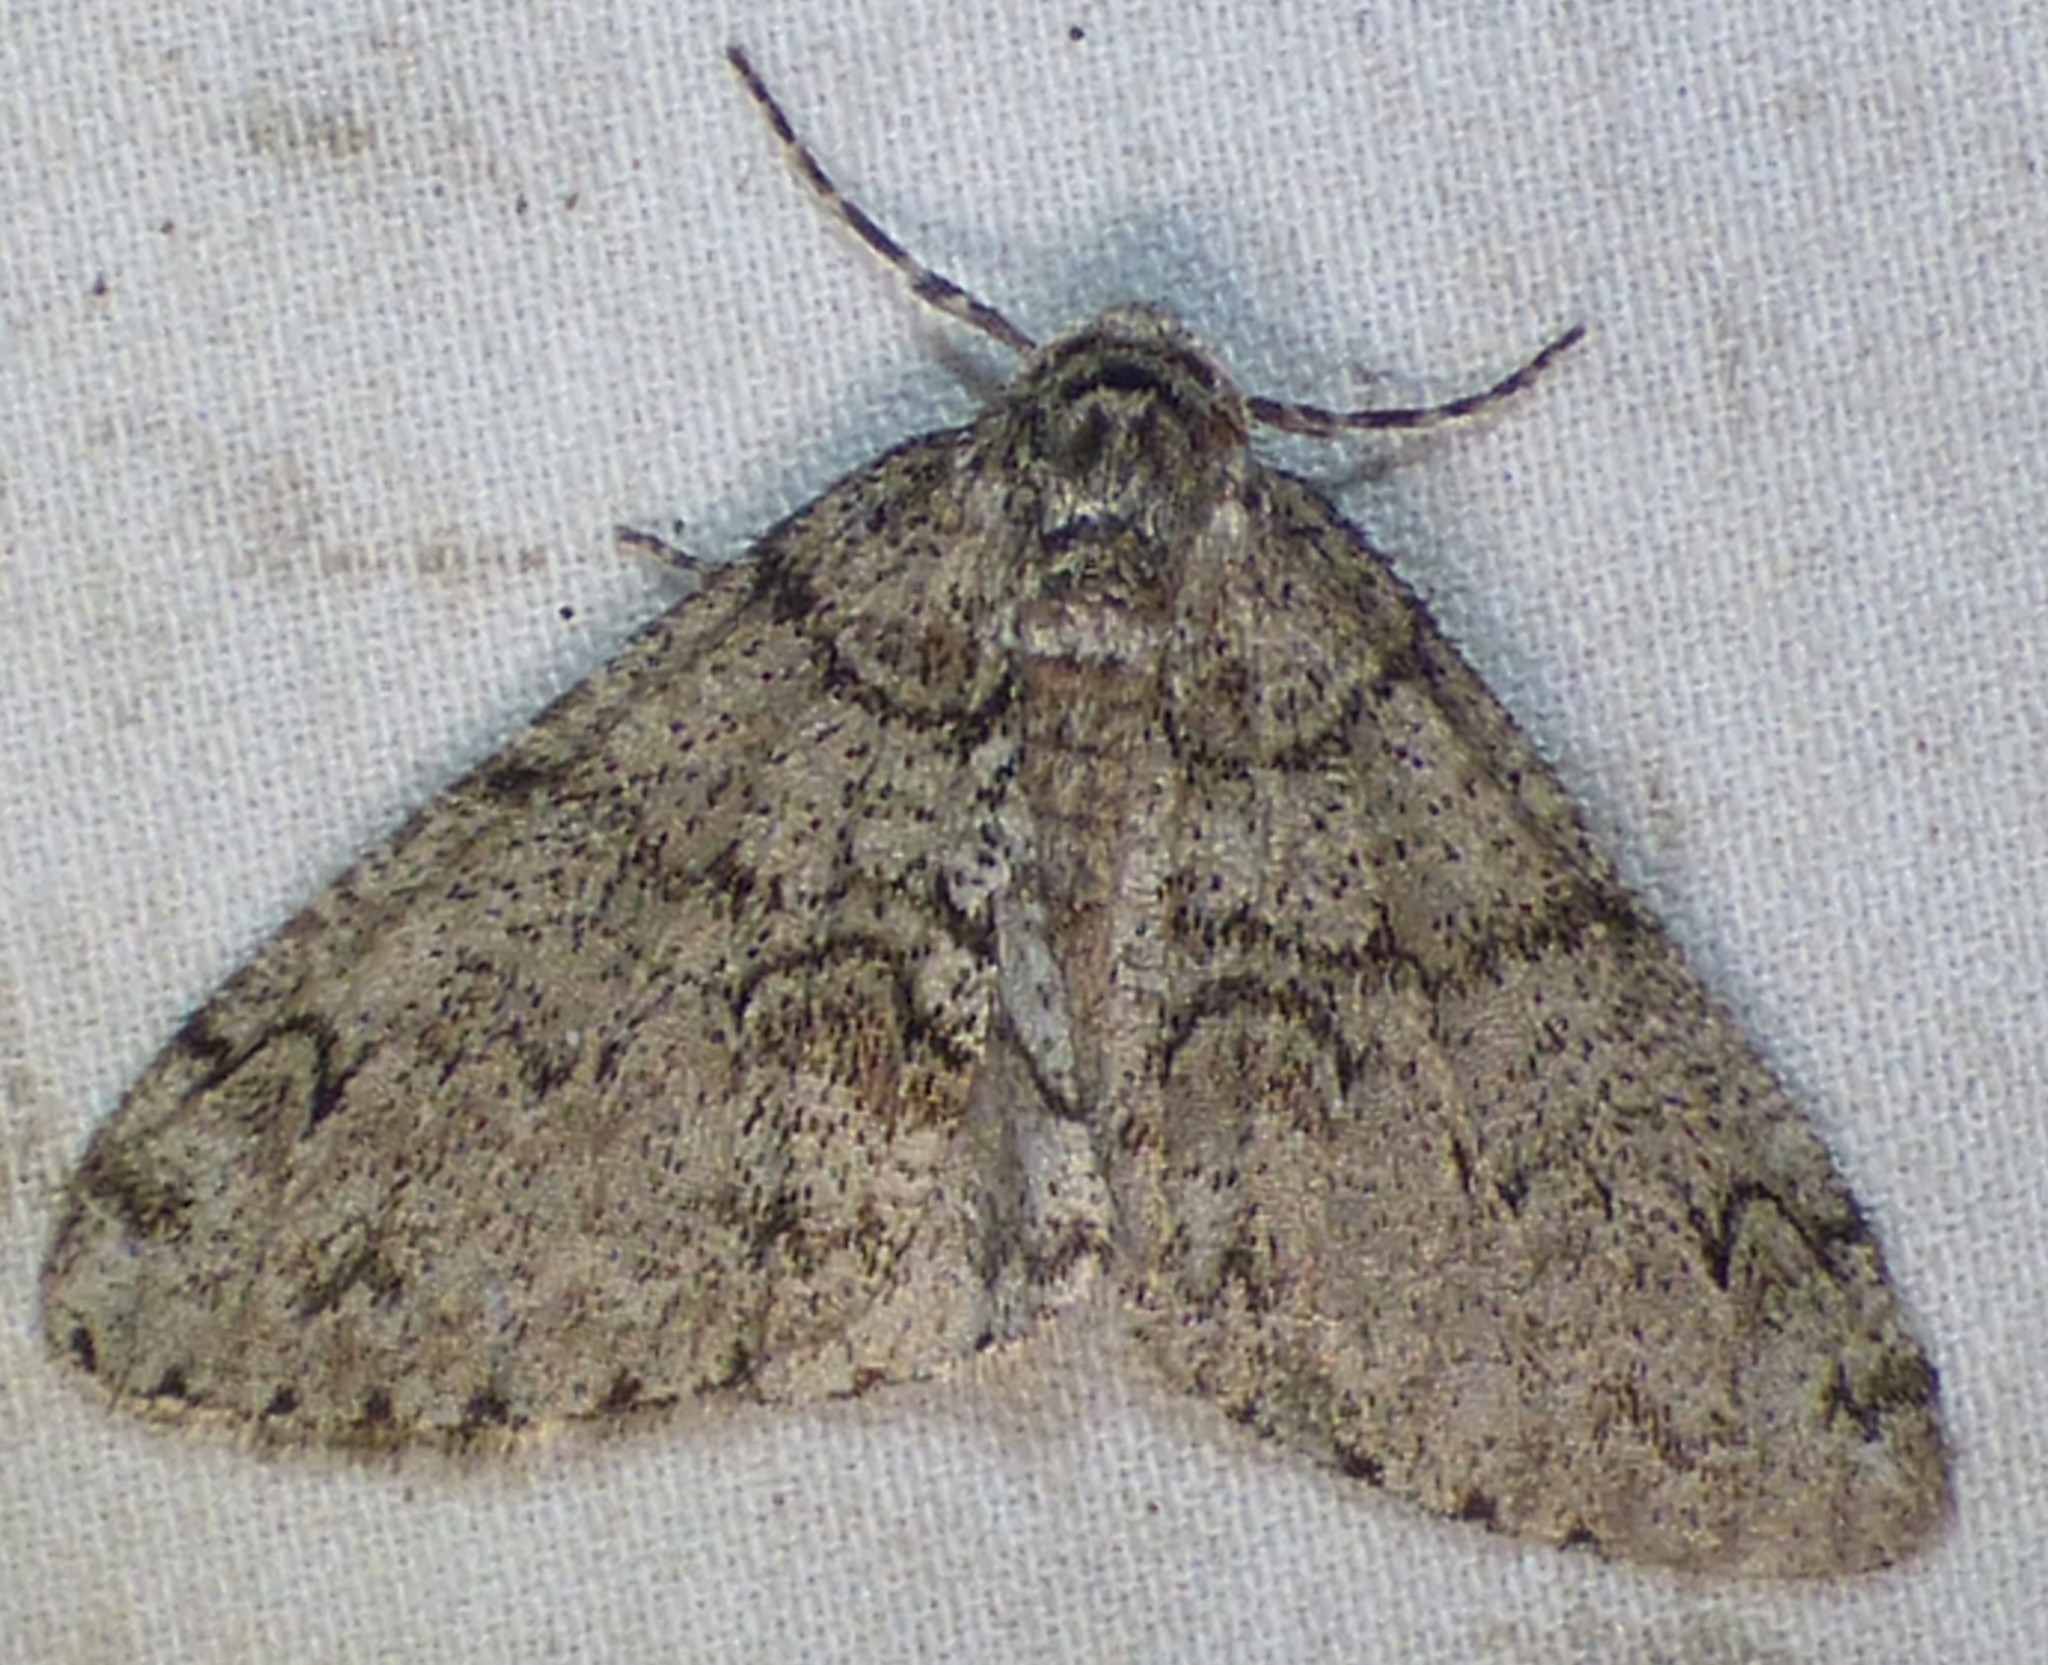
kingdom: Animalia
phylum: Arthropoda
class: Insecta
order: Lepidoptera
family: Geometridae
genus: Phigalia
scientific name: Phigalia strigataria
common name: Small phigalia
